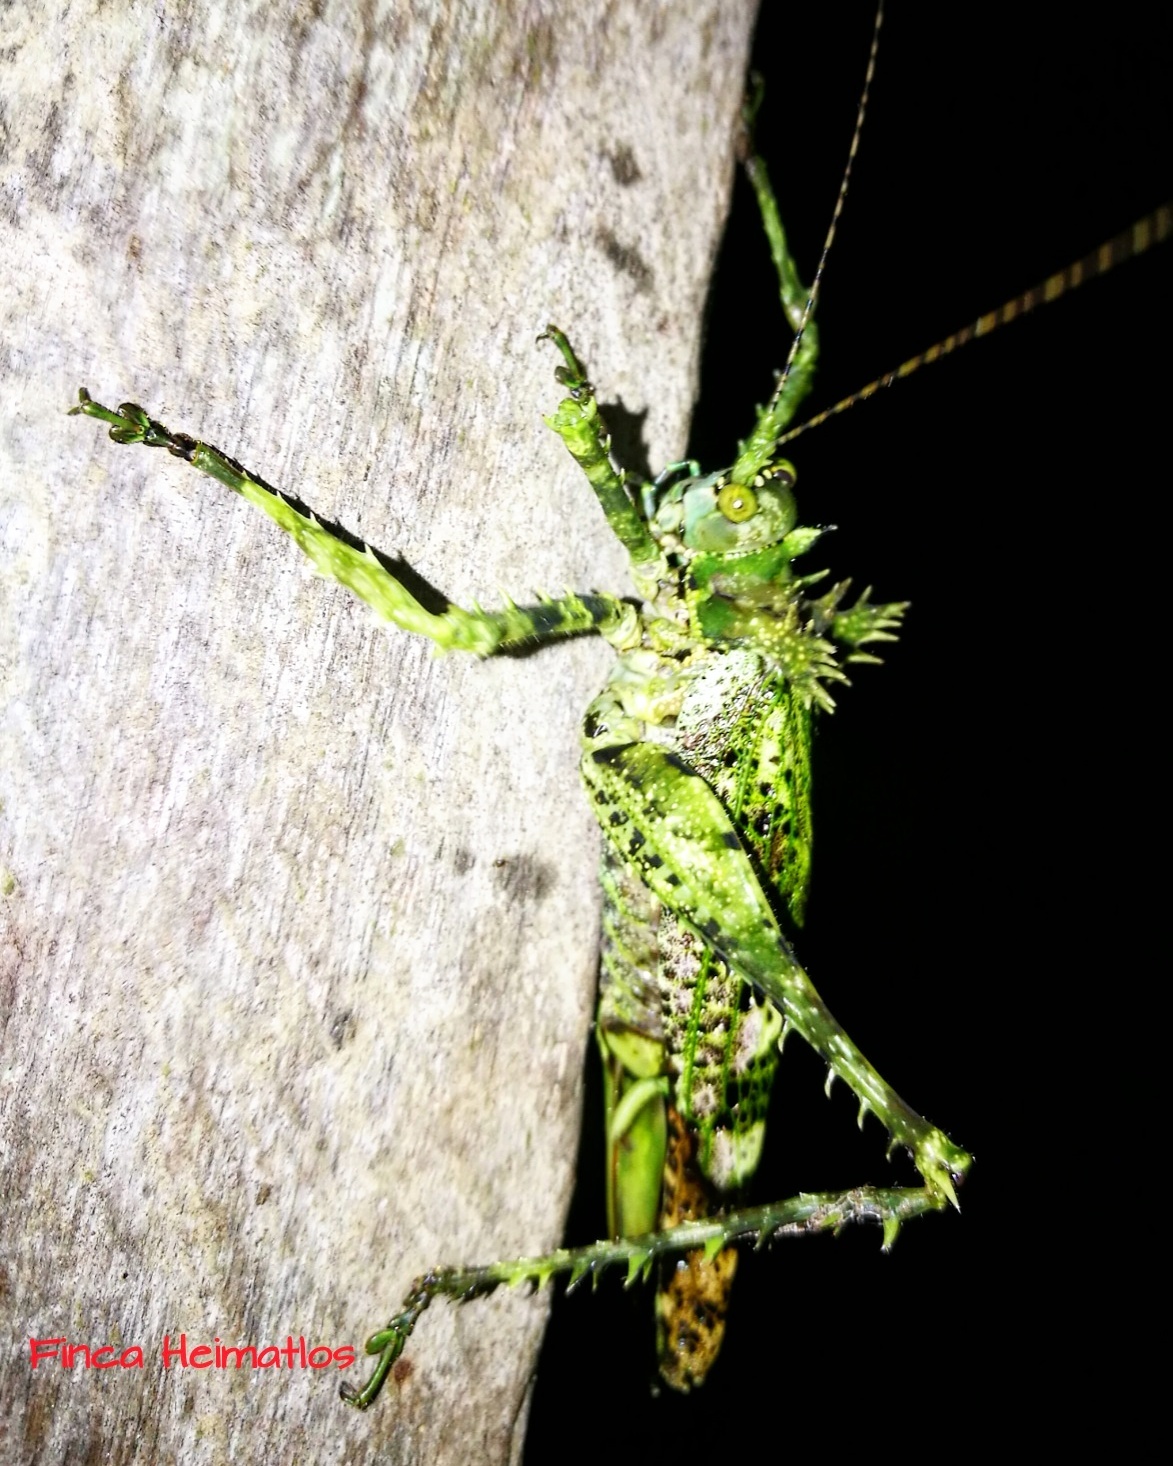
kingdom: Animalia
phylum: Arthropoda
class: Insecta
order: Orthoptera
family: Tettigoniidae
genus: Championica
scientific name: Championica bicuspidata
